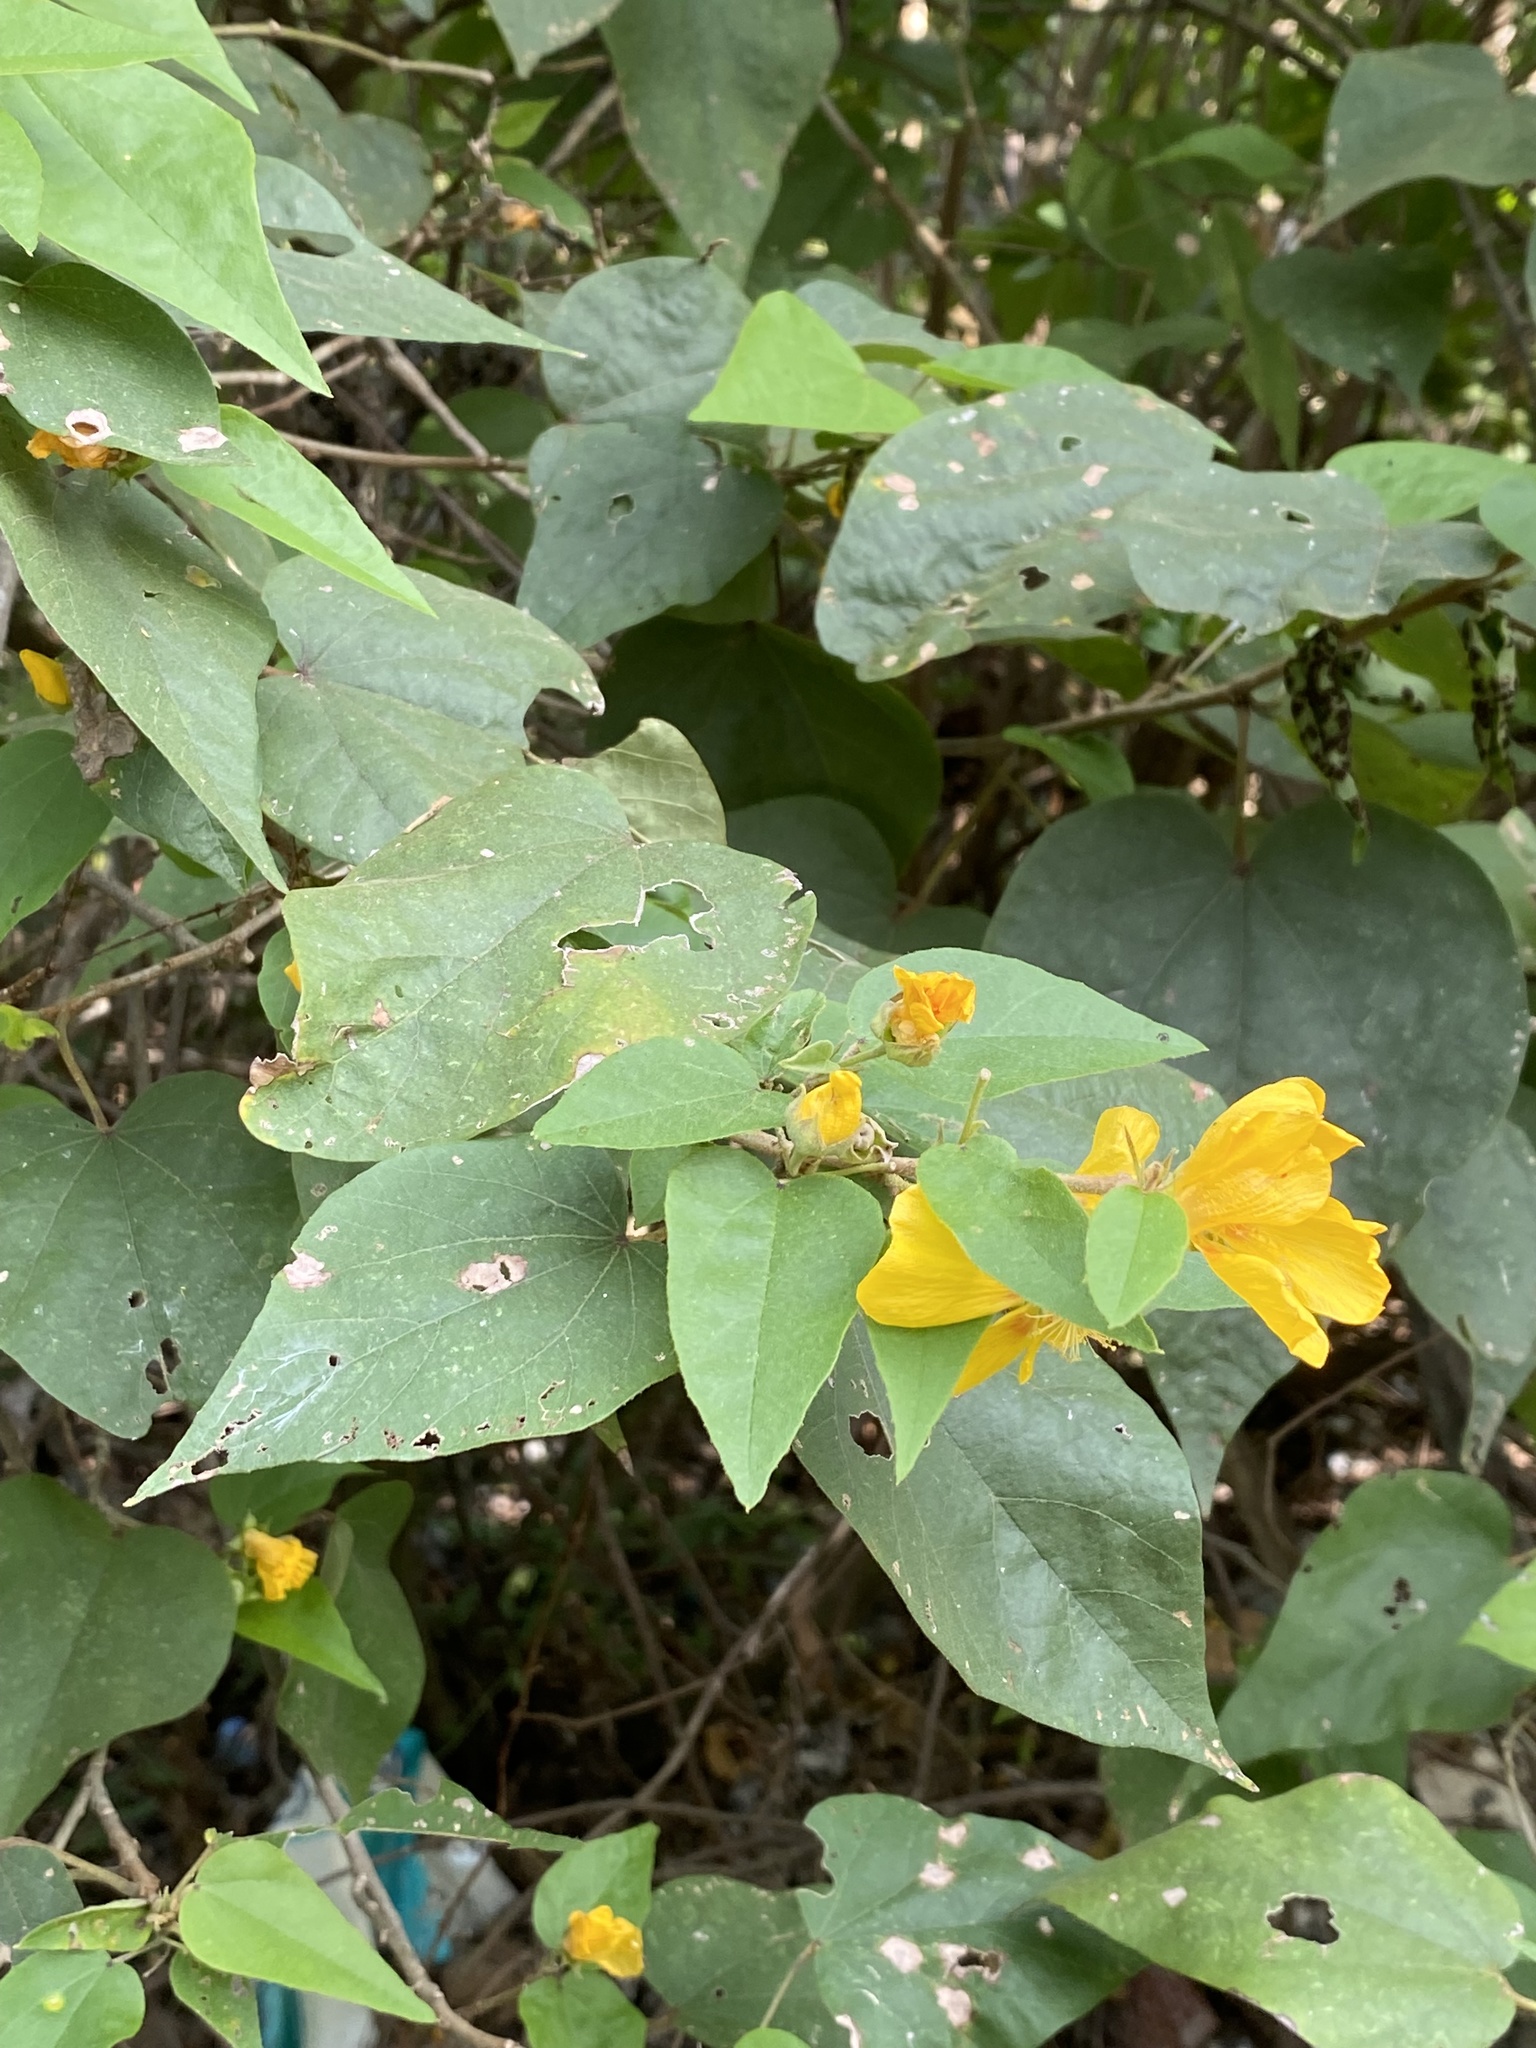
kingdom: Plantae
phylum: Tracheophyta
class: Magnoliopsida
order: Malvales
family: Malvaceae
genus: Bakeridesia
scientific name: Bakeridesia gaumeri
